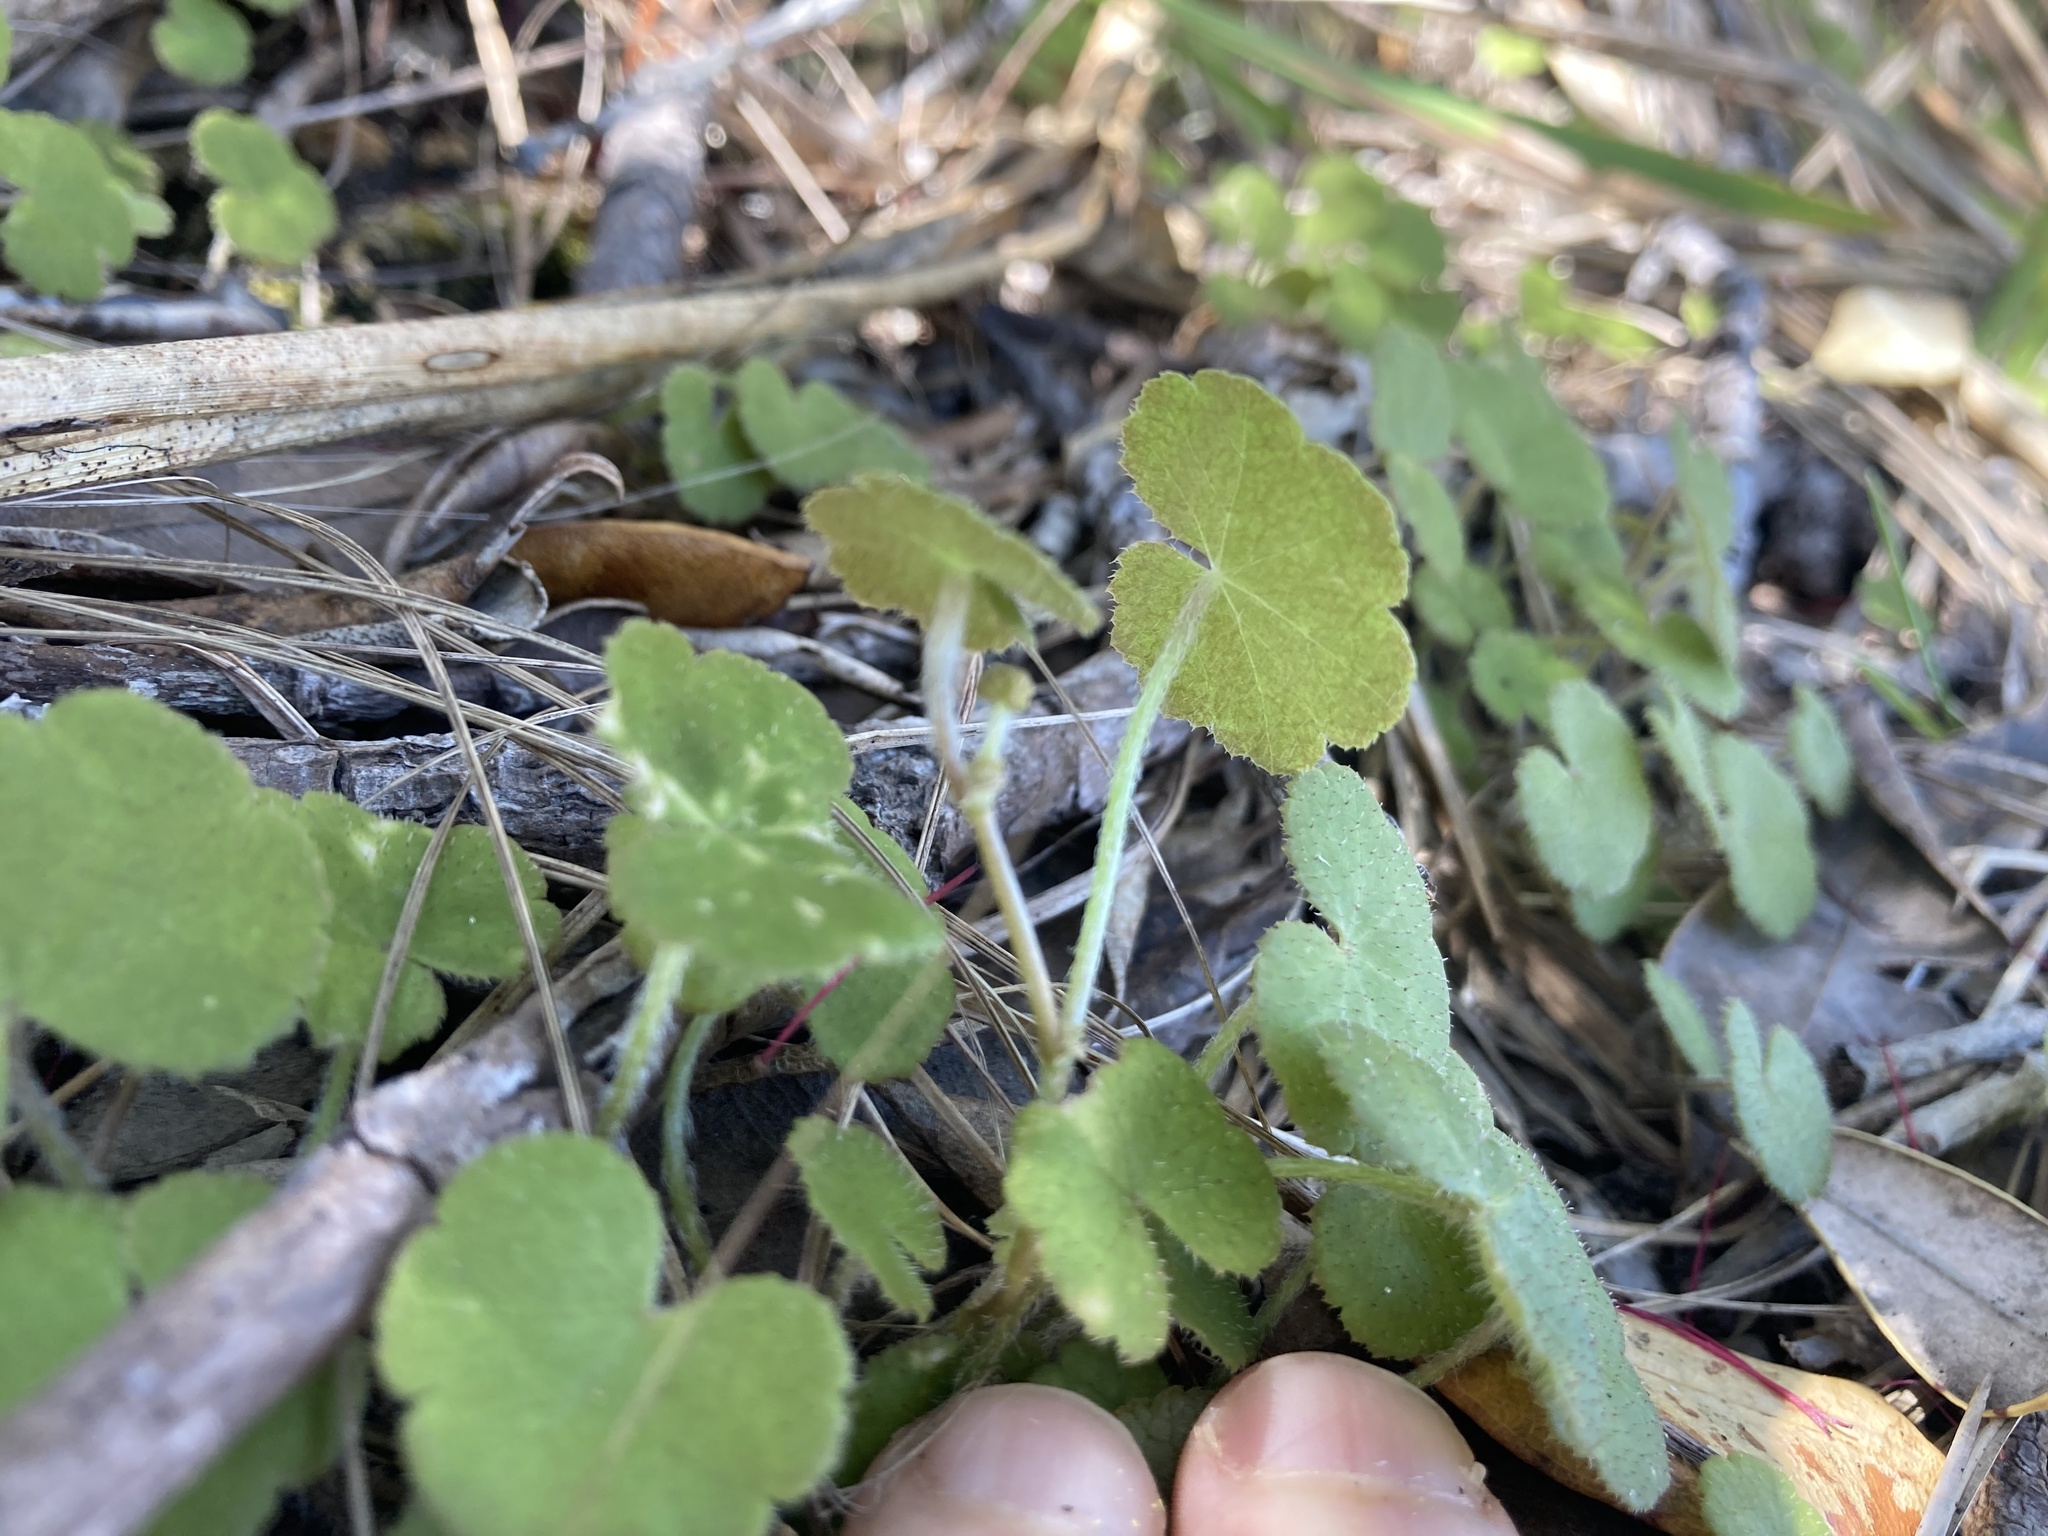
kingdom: Plantae
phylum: Tracheophyta
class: Magnoliopsida
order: Apiales
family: Araliaceae
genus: Hydrocotyle
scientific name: Hydrocotyle elongata
